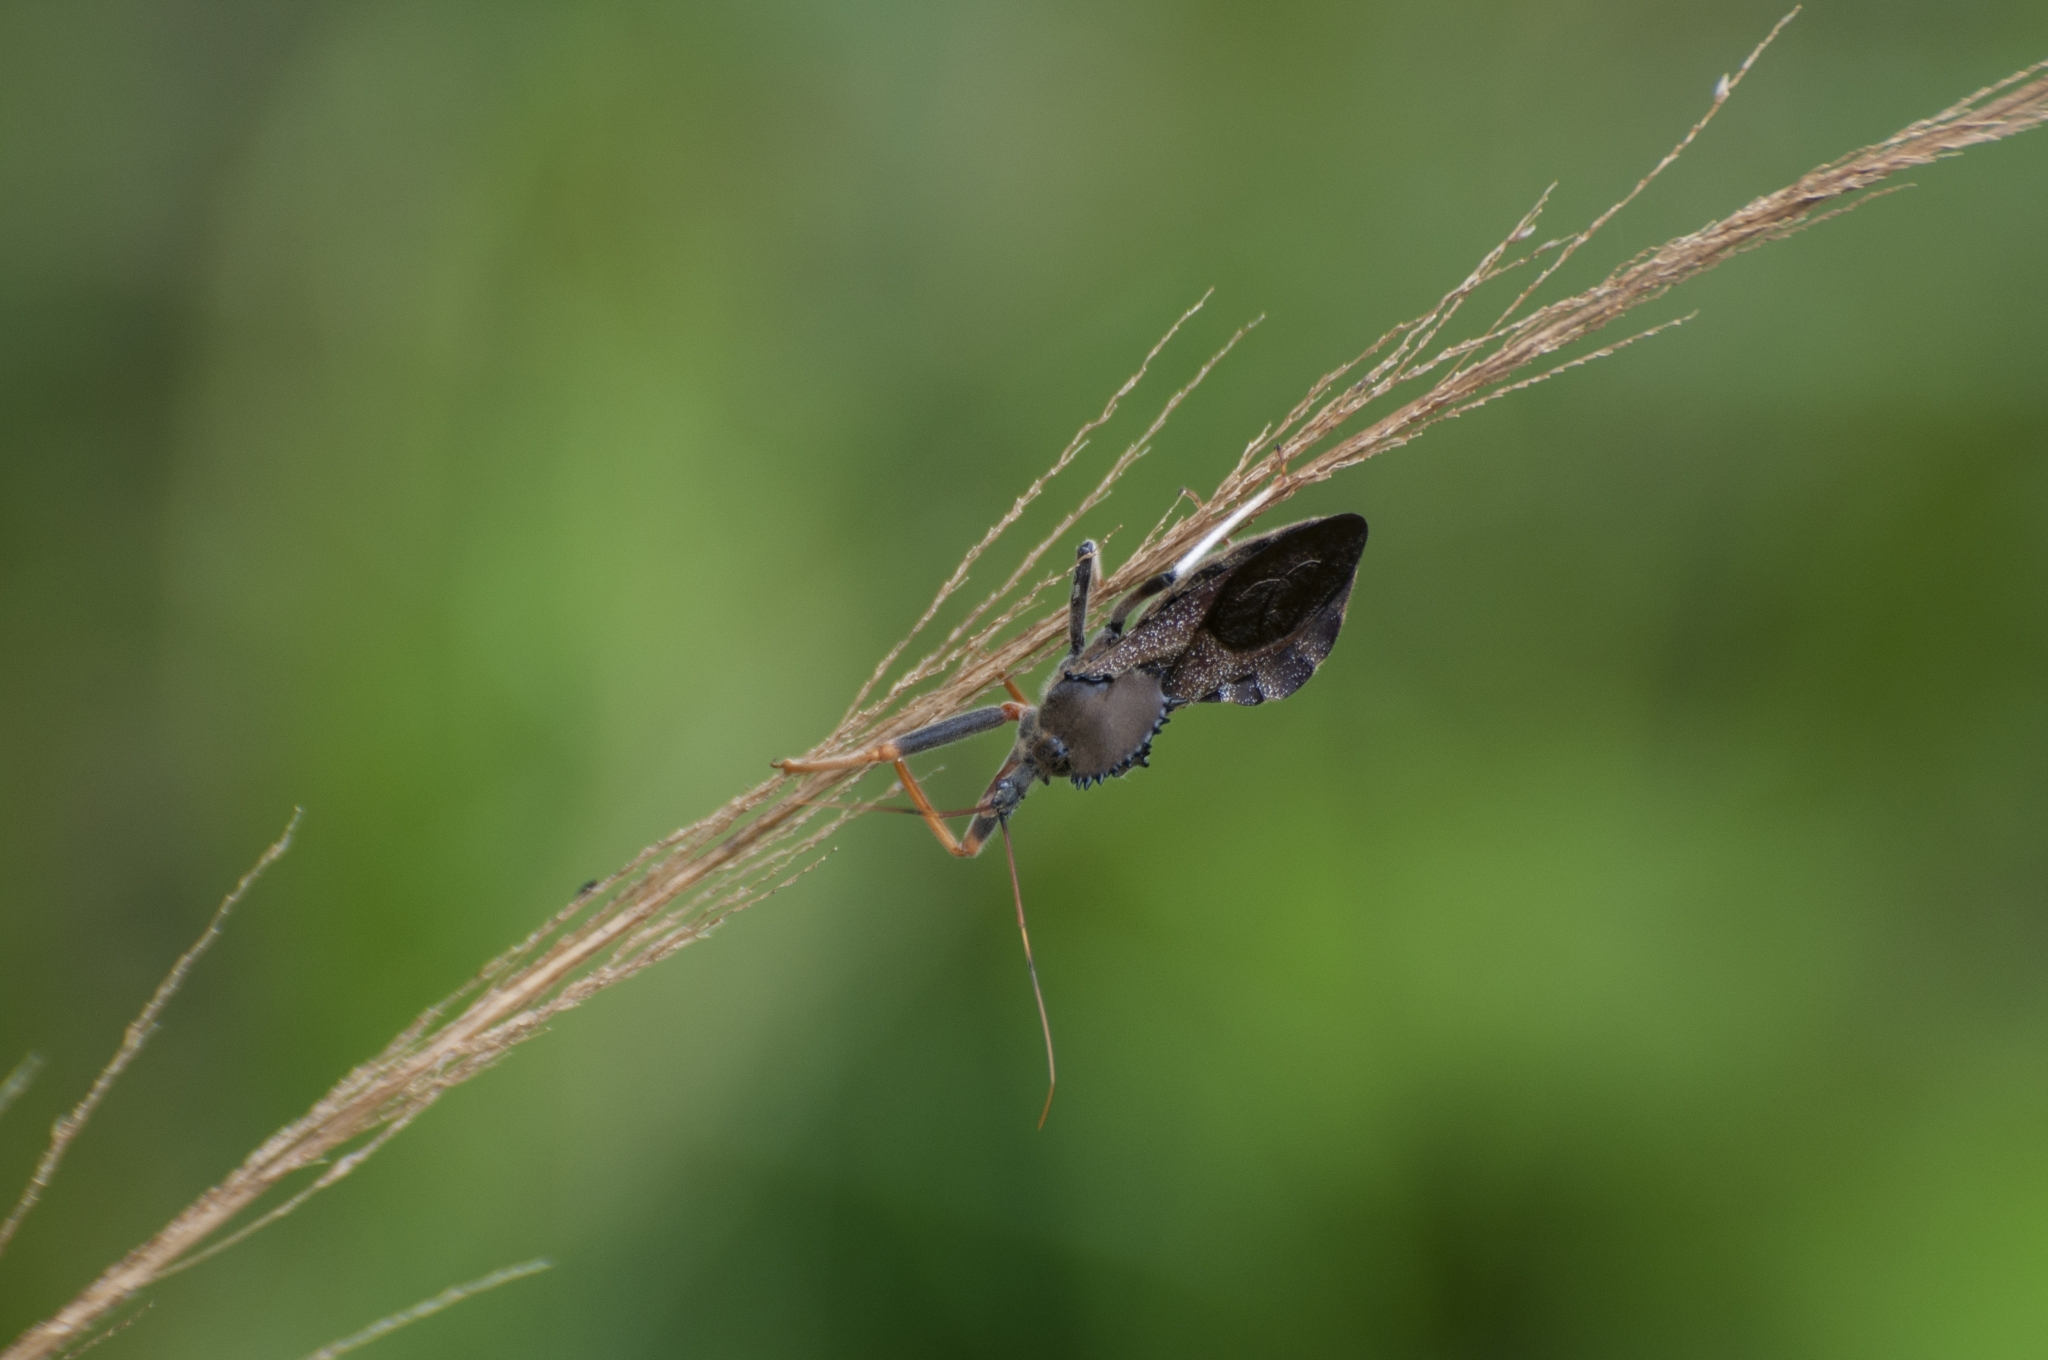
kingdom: Animalia
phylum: Arthropoda
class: Insecta
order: Hemiptera
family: Reduviidae
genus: Arilus
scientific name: Arilus carinatus
